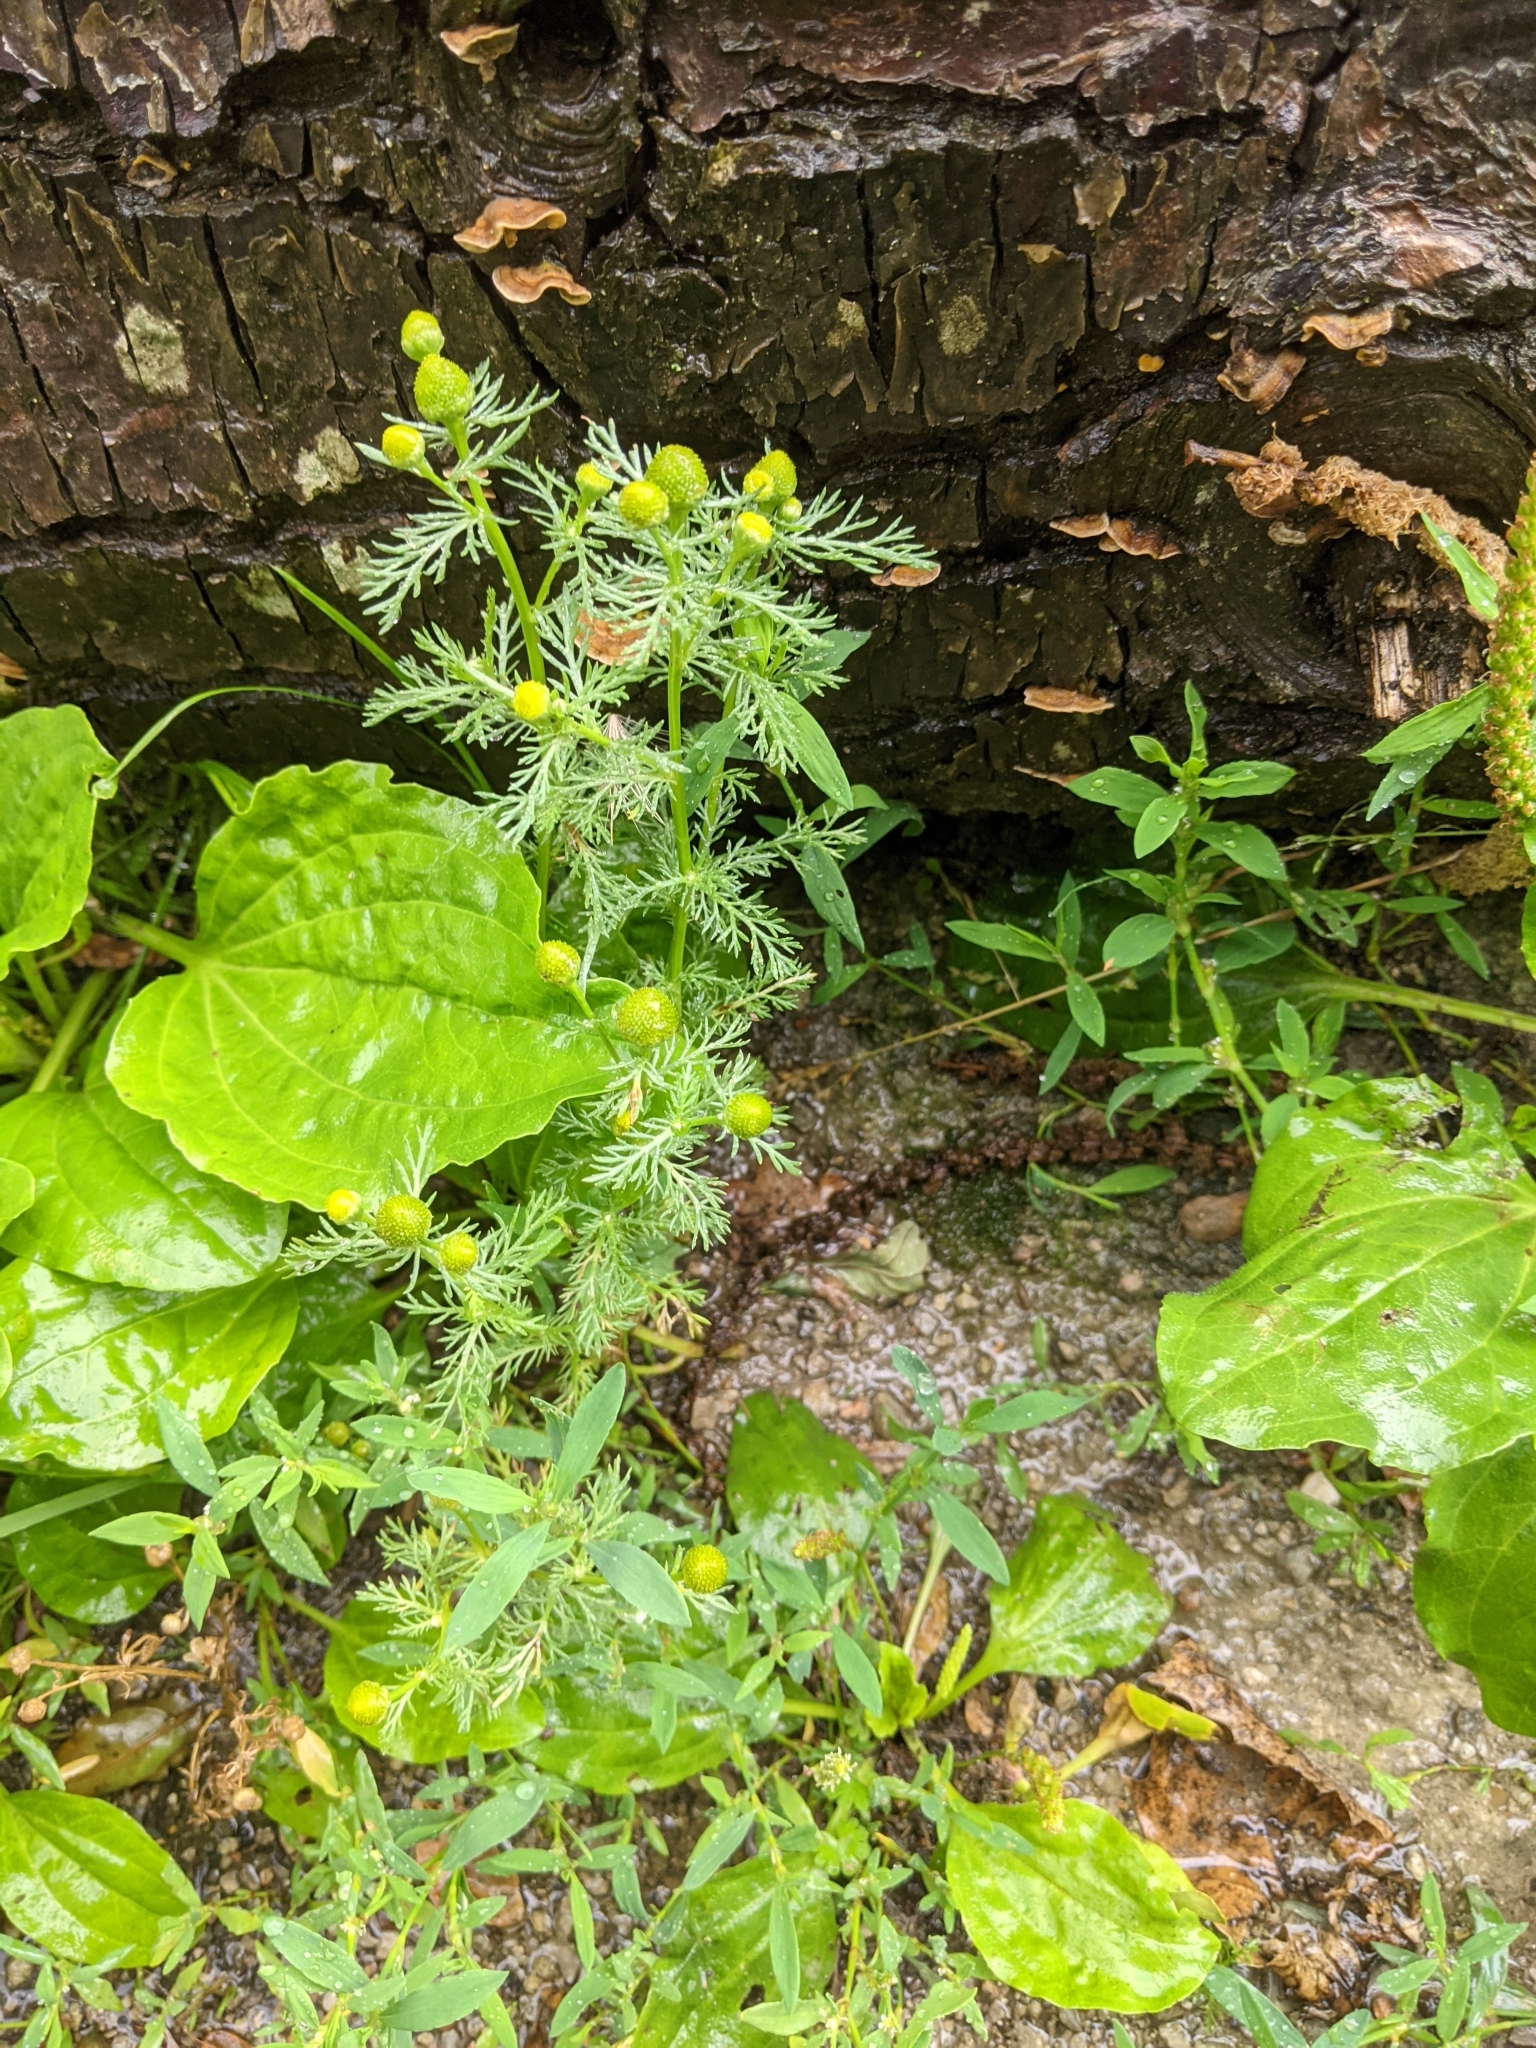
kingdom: Plantae
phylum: Tracheophyta
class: Magnoliopsida
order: Asterales
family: Asteraceae
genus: Matricaria
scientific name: Matricaria discoidea
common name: Disc mayweed
